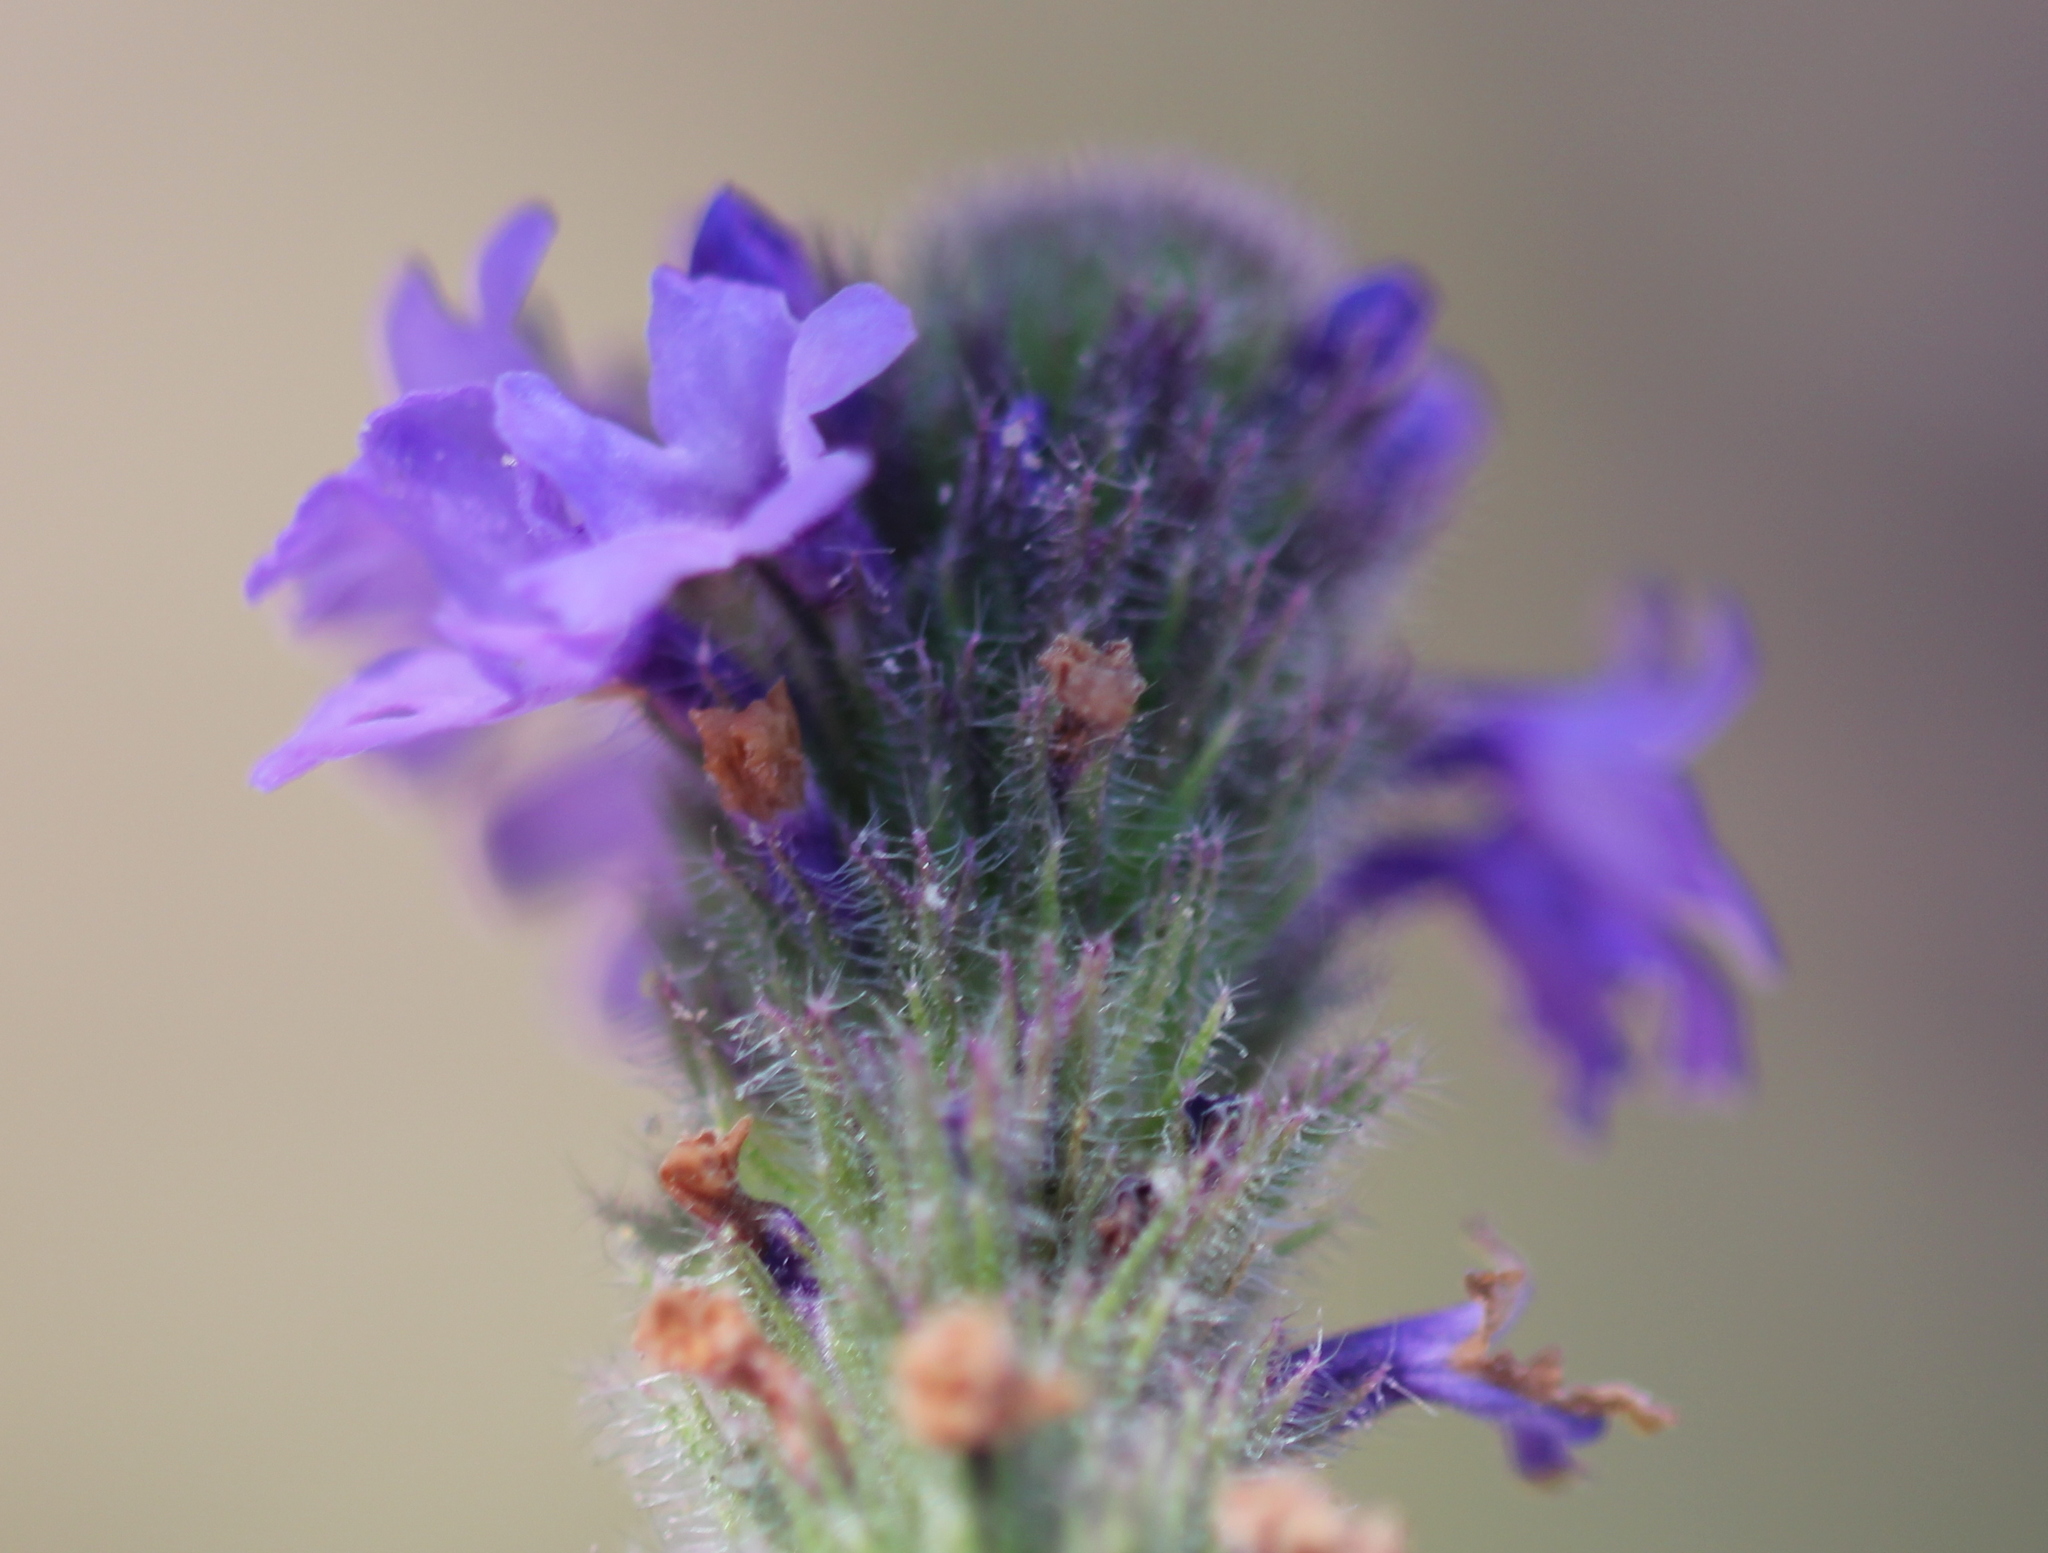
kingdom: Plantae
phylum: Tracheophyta
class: Magnoliopsida
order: Lamiales
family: Verbenaceae
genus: Verbena
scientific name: Verbena lasiostachys
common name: Vervain
